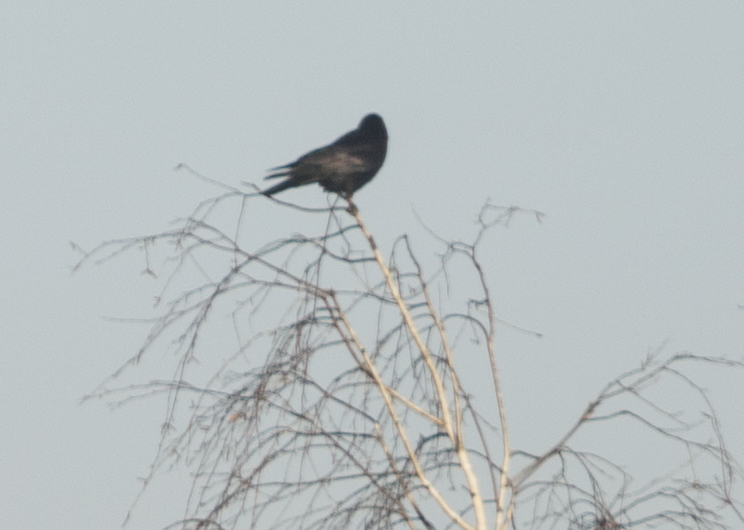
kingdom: Animalia
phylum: Chordata
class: Aves
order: Passeriformes
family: Corvidae
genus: Corvus
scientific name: Corvus frugilegus
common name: Rook
